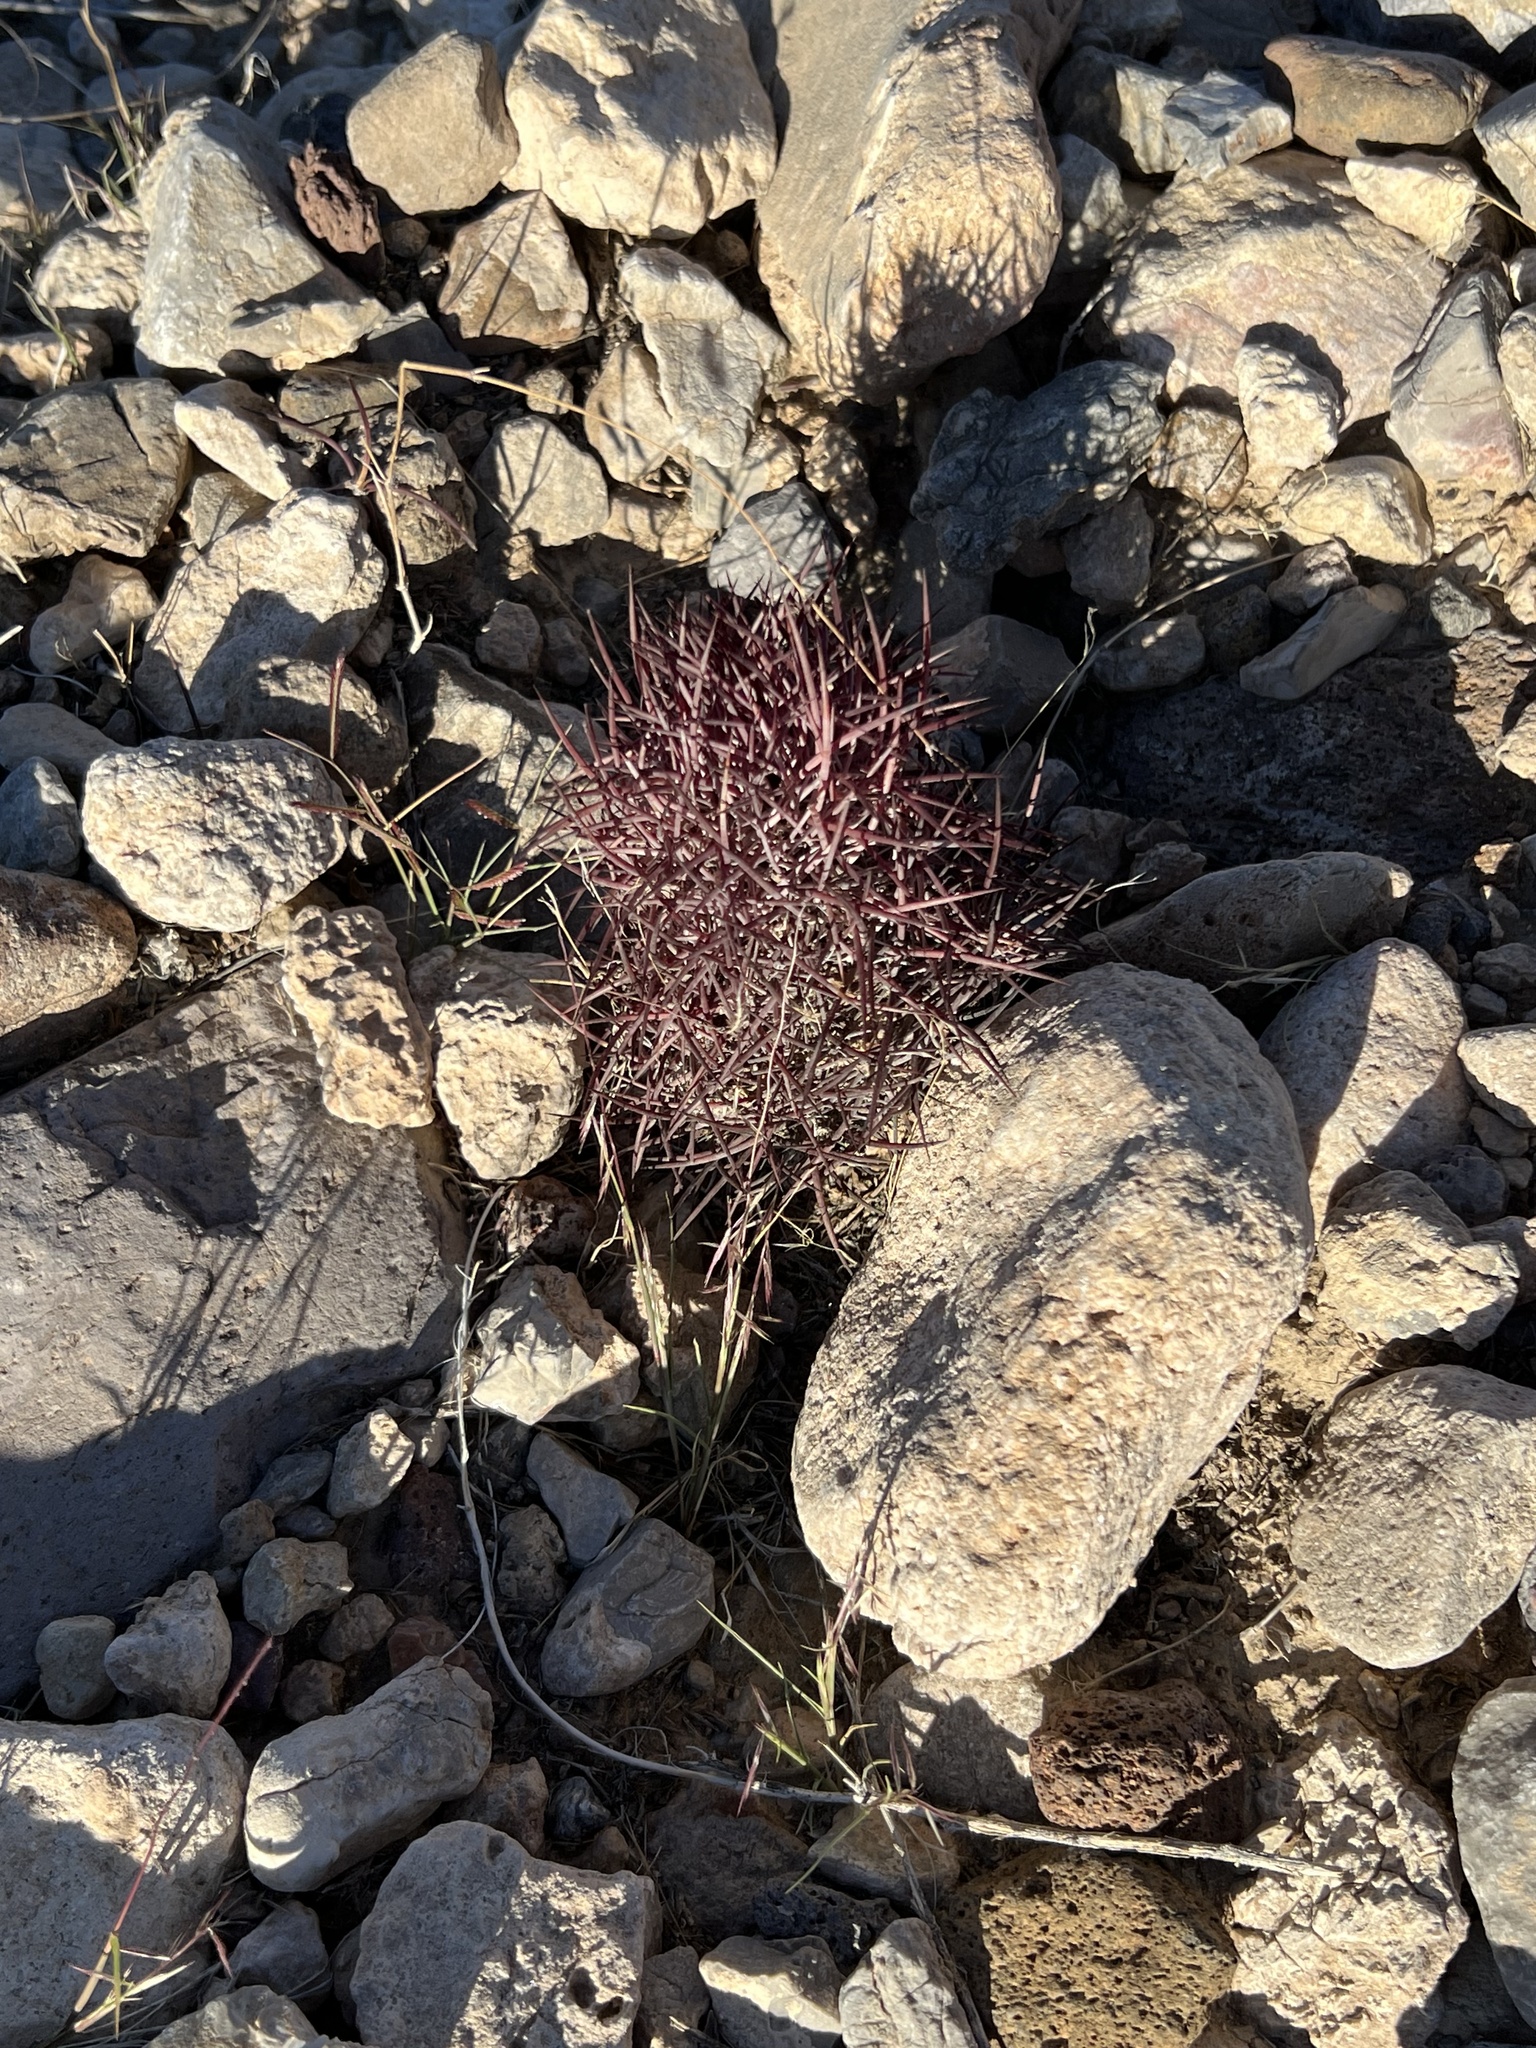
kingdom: Plantae
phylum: Tracheophyta
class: Magnoliopsida
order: Caryophyllales
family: Cactaceae
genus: Sclerocactus
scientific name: Sclerocactus johnsonii
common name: Eight-spine fishhook cactus
